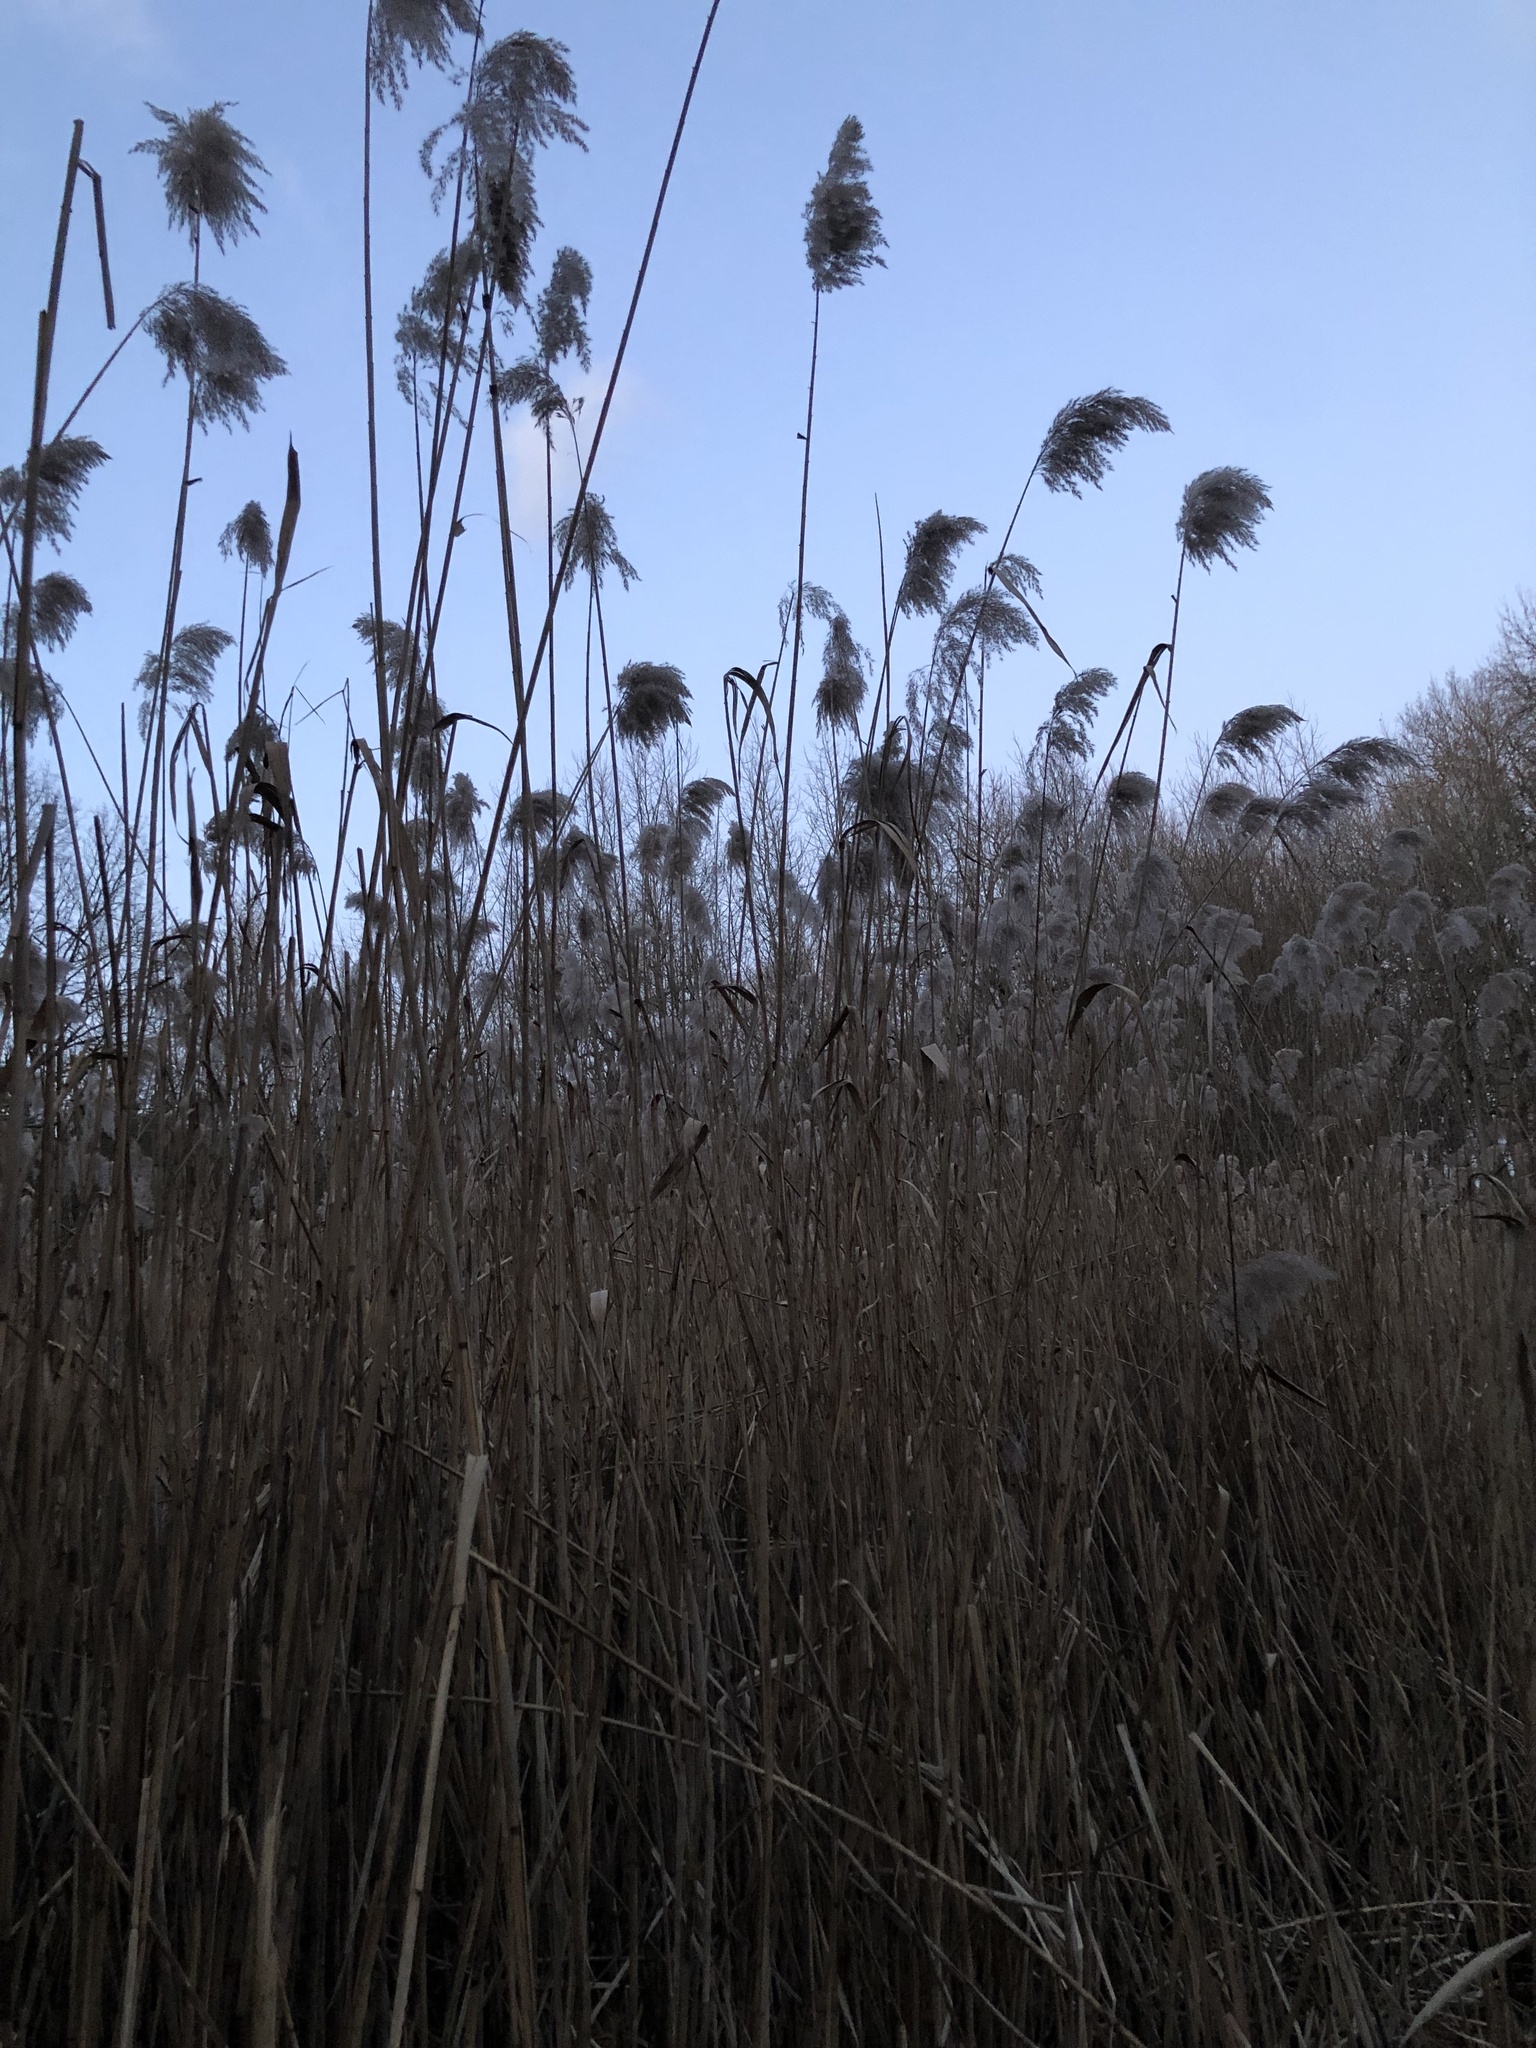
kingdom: Plantae
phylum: Tracheophyta
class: Liliopsida
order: Poales
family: Poaceae
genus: Phragmites
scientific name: Phragmites australis
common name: Common reed
